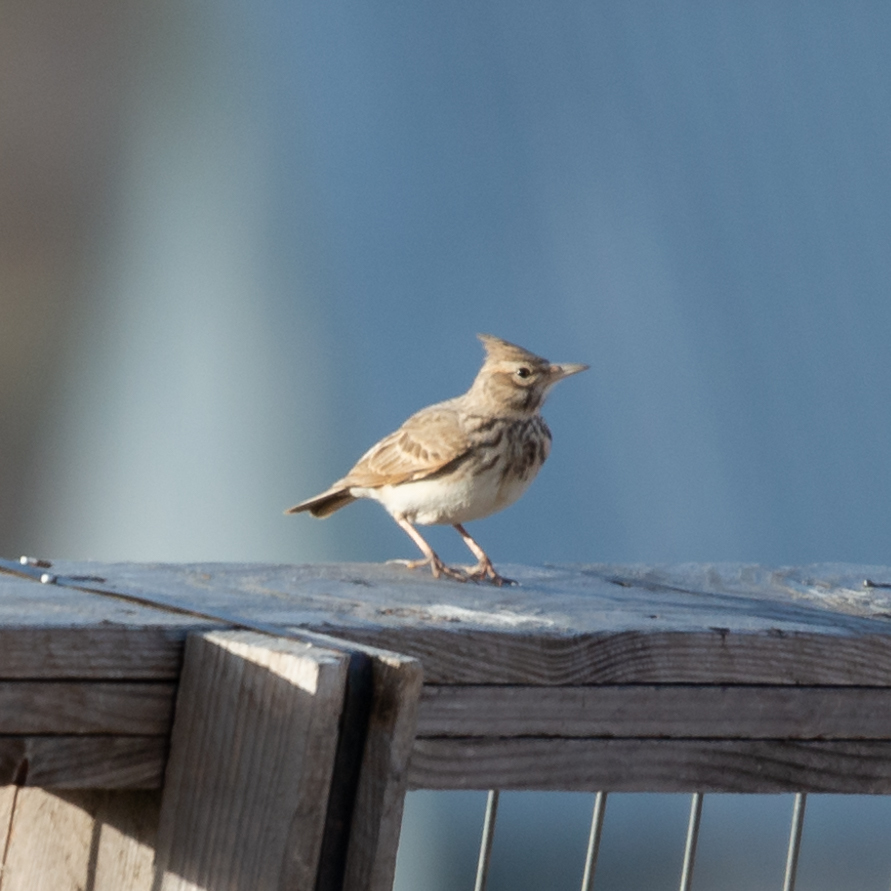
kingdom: Animalia
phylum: Chordata
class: Aves
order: Passeriformes
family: Alaudidae
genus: Galerida
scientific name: Galerida theklae
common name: Thekla lark
